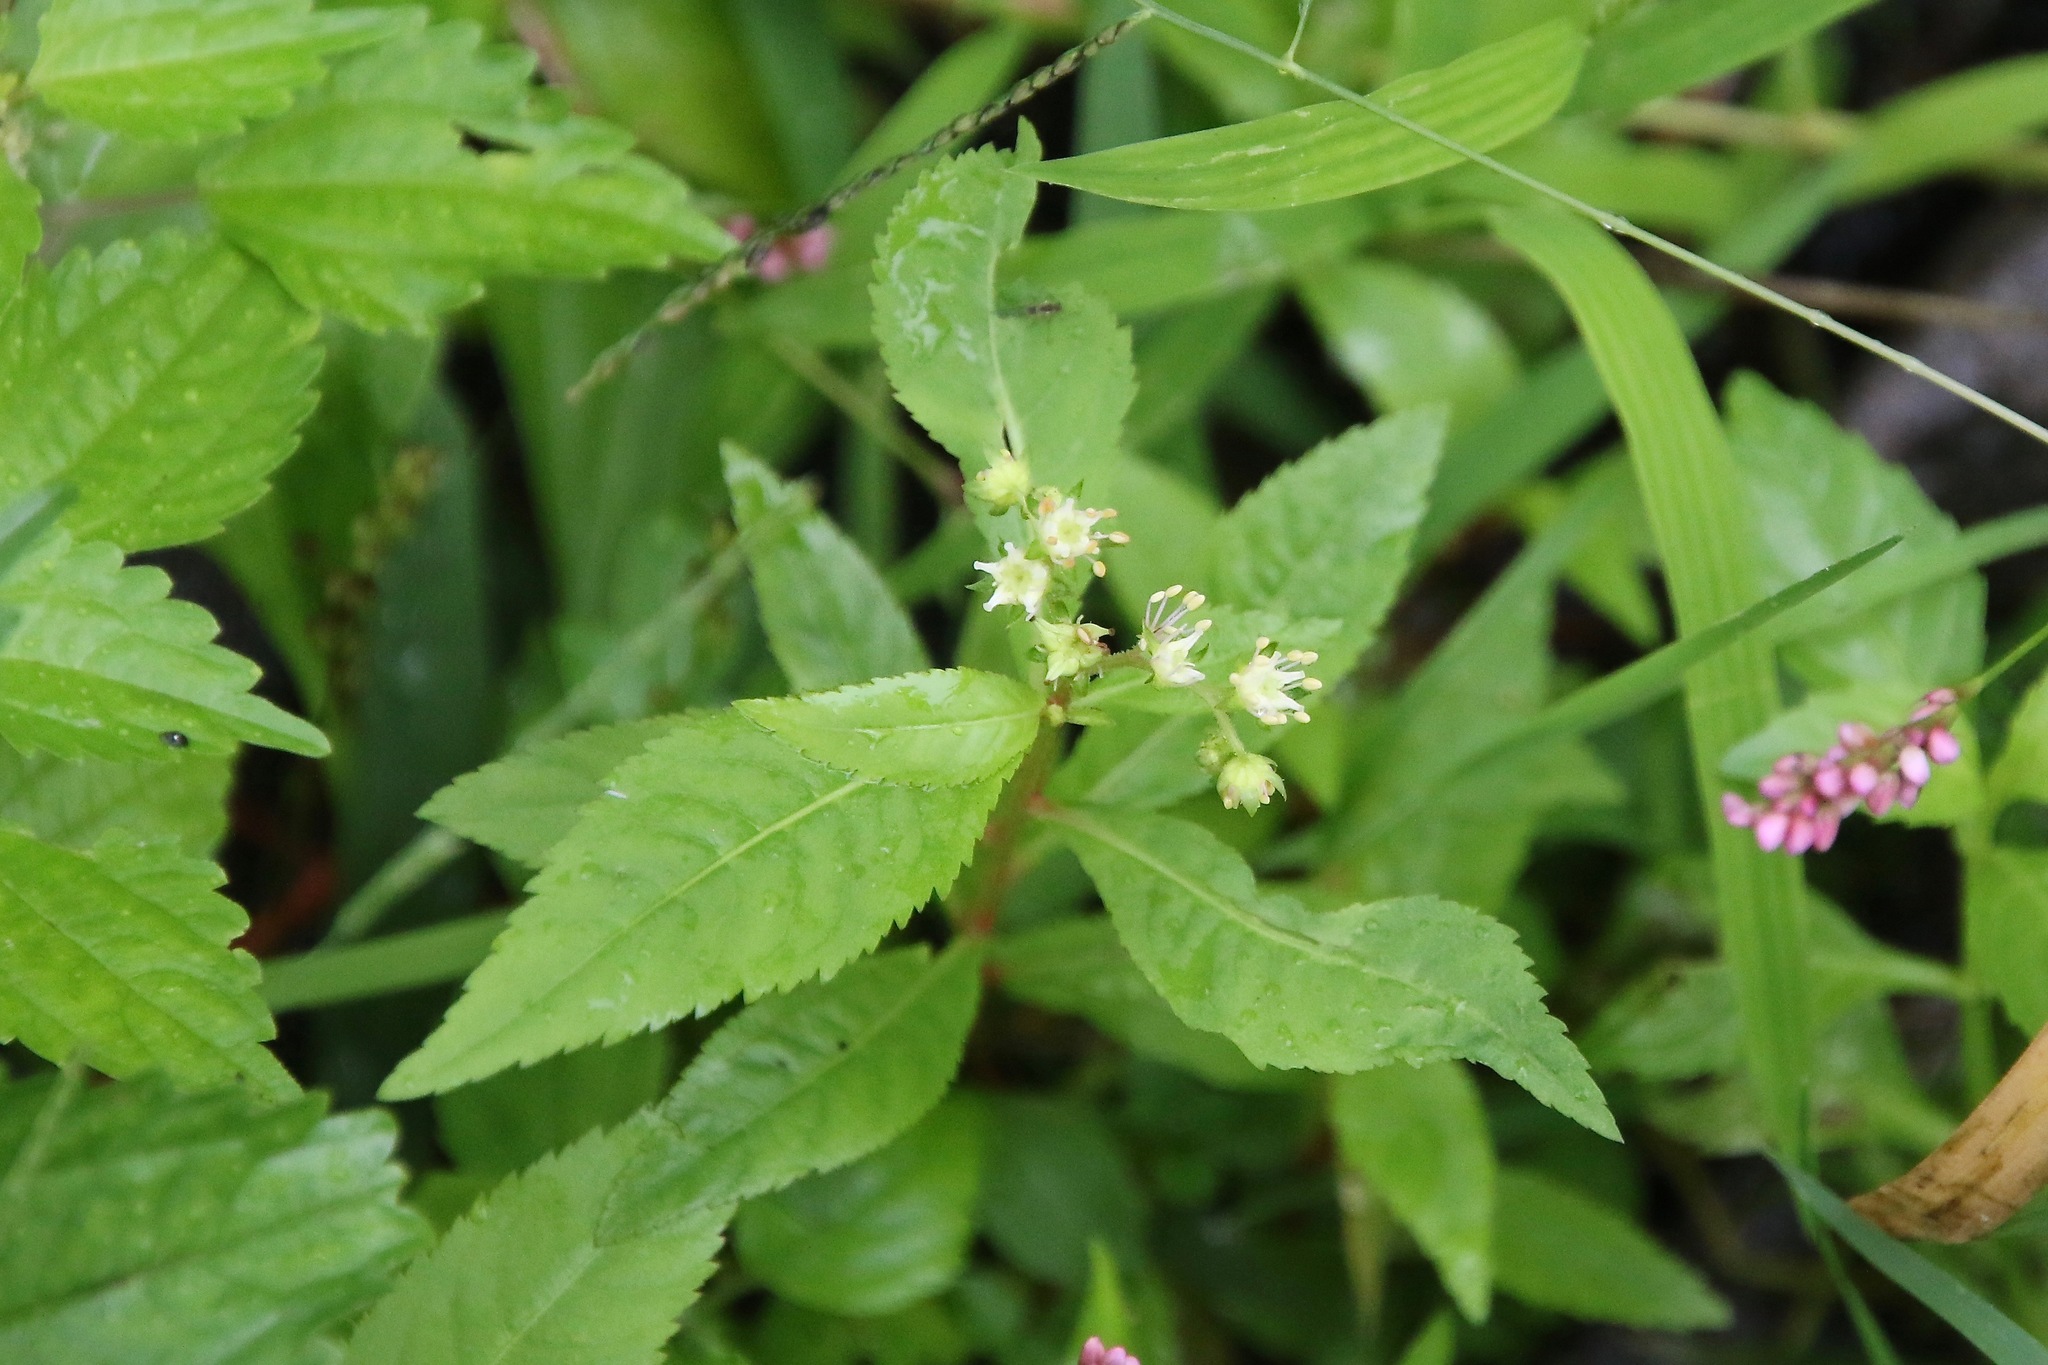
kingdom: Plantae
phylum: Tracheophyta
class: Magnoliopsida
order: Saxifragales
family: Penthoraceae
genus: Penthorum
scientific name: Penthorum sedoides
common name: Ditch stonecrop
